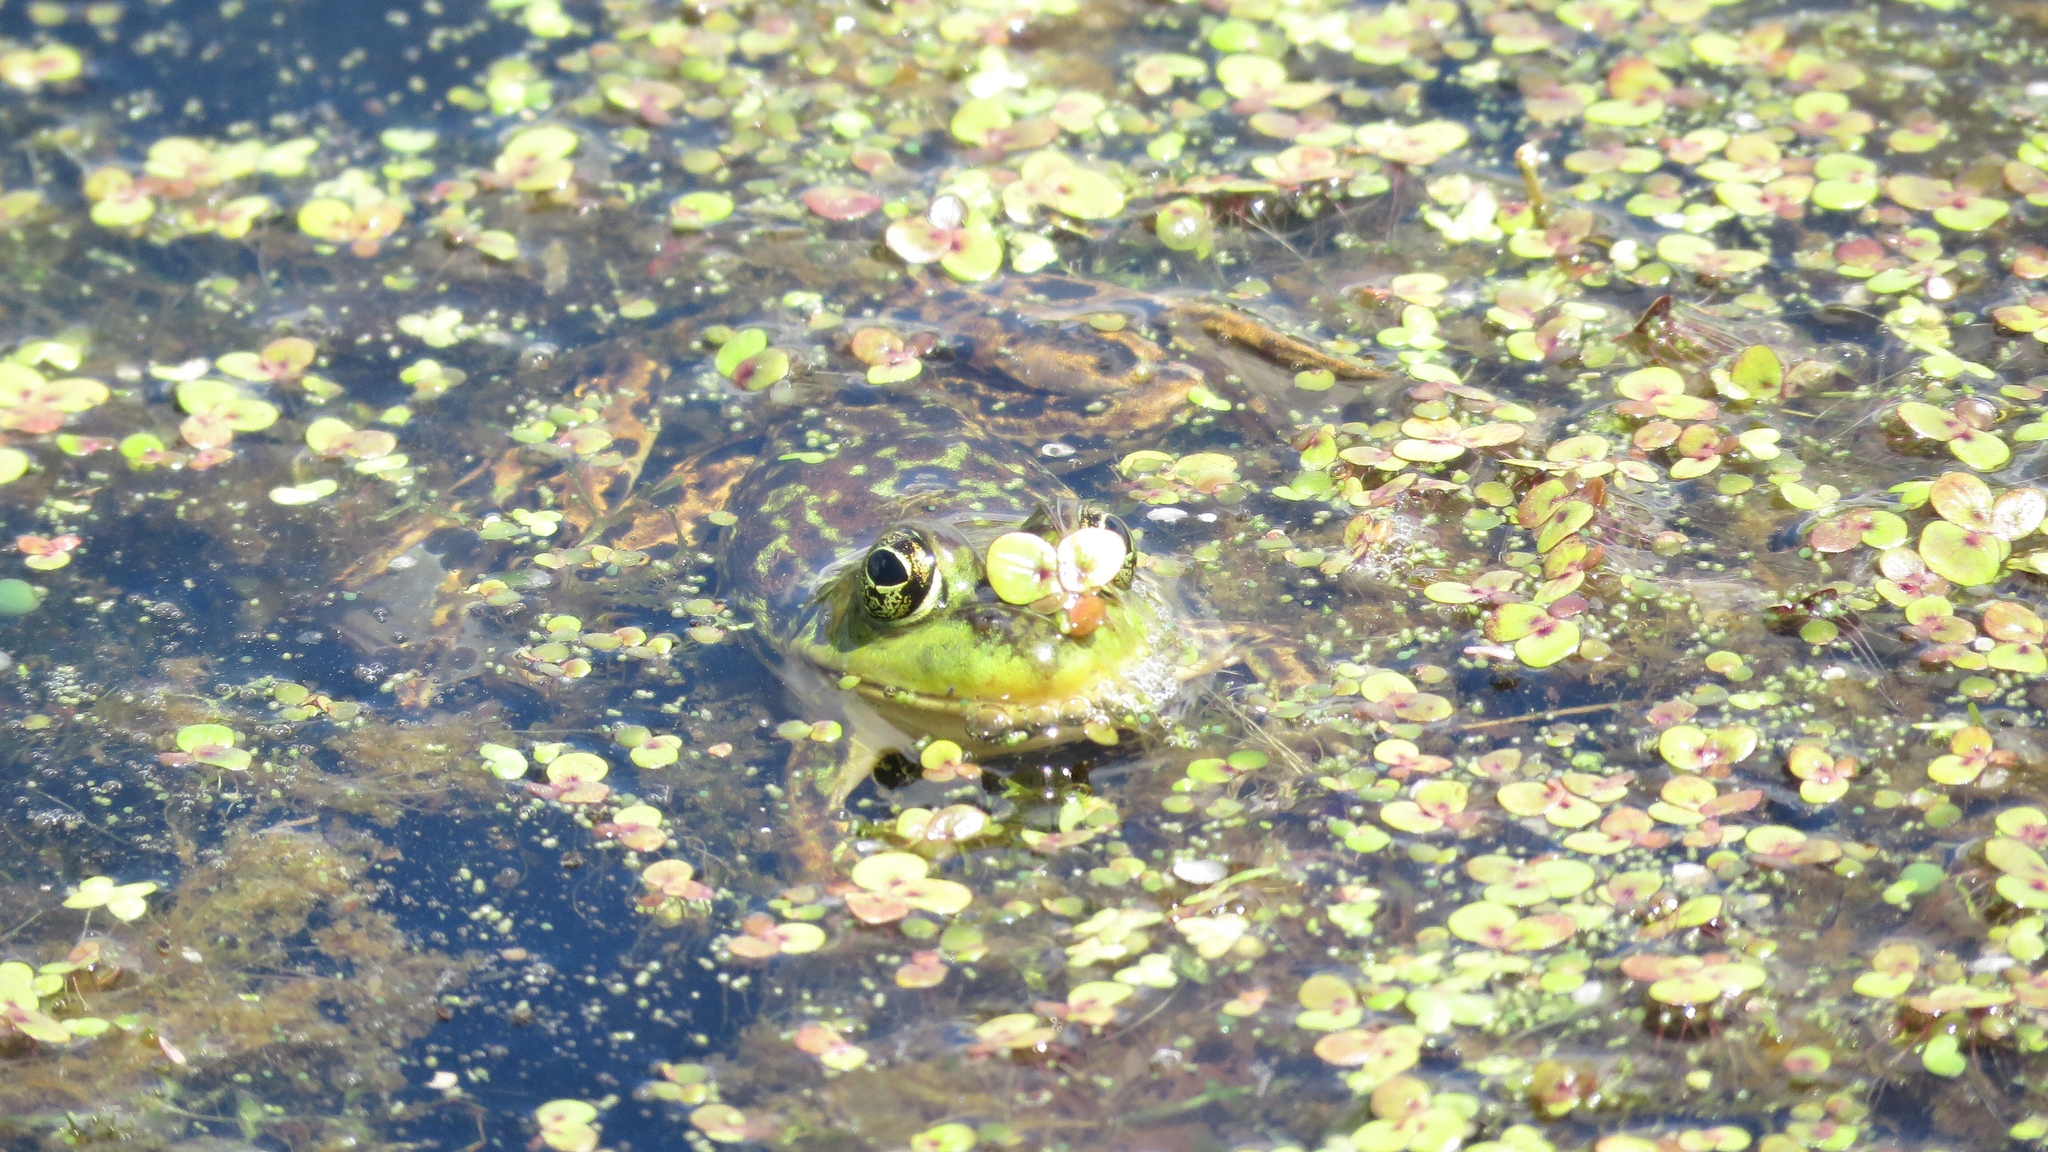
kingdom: Animalia
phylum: Chordata
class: Amphibia
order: Anura
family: Ranidae
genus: Lithobates
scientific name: Lithobates septentrionalis
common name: Mink frog
